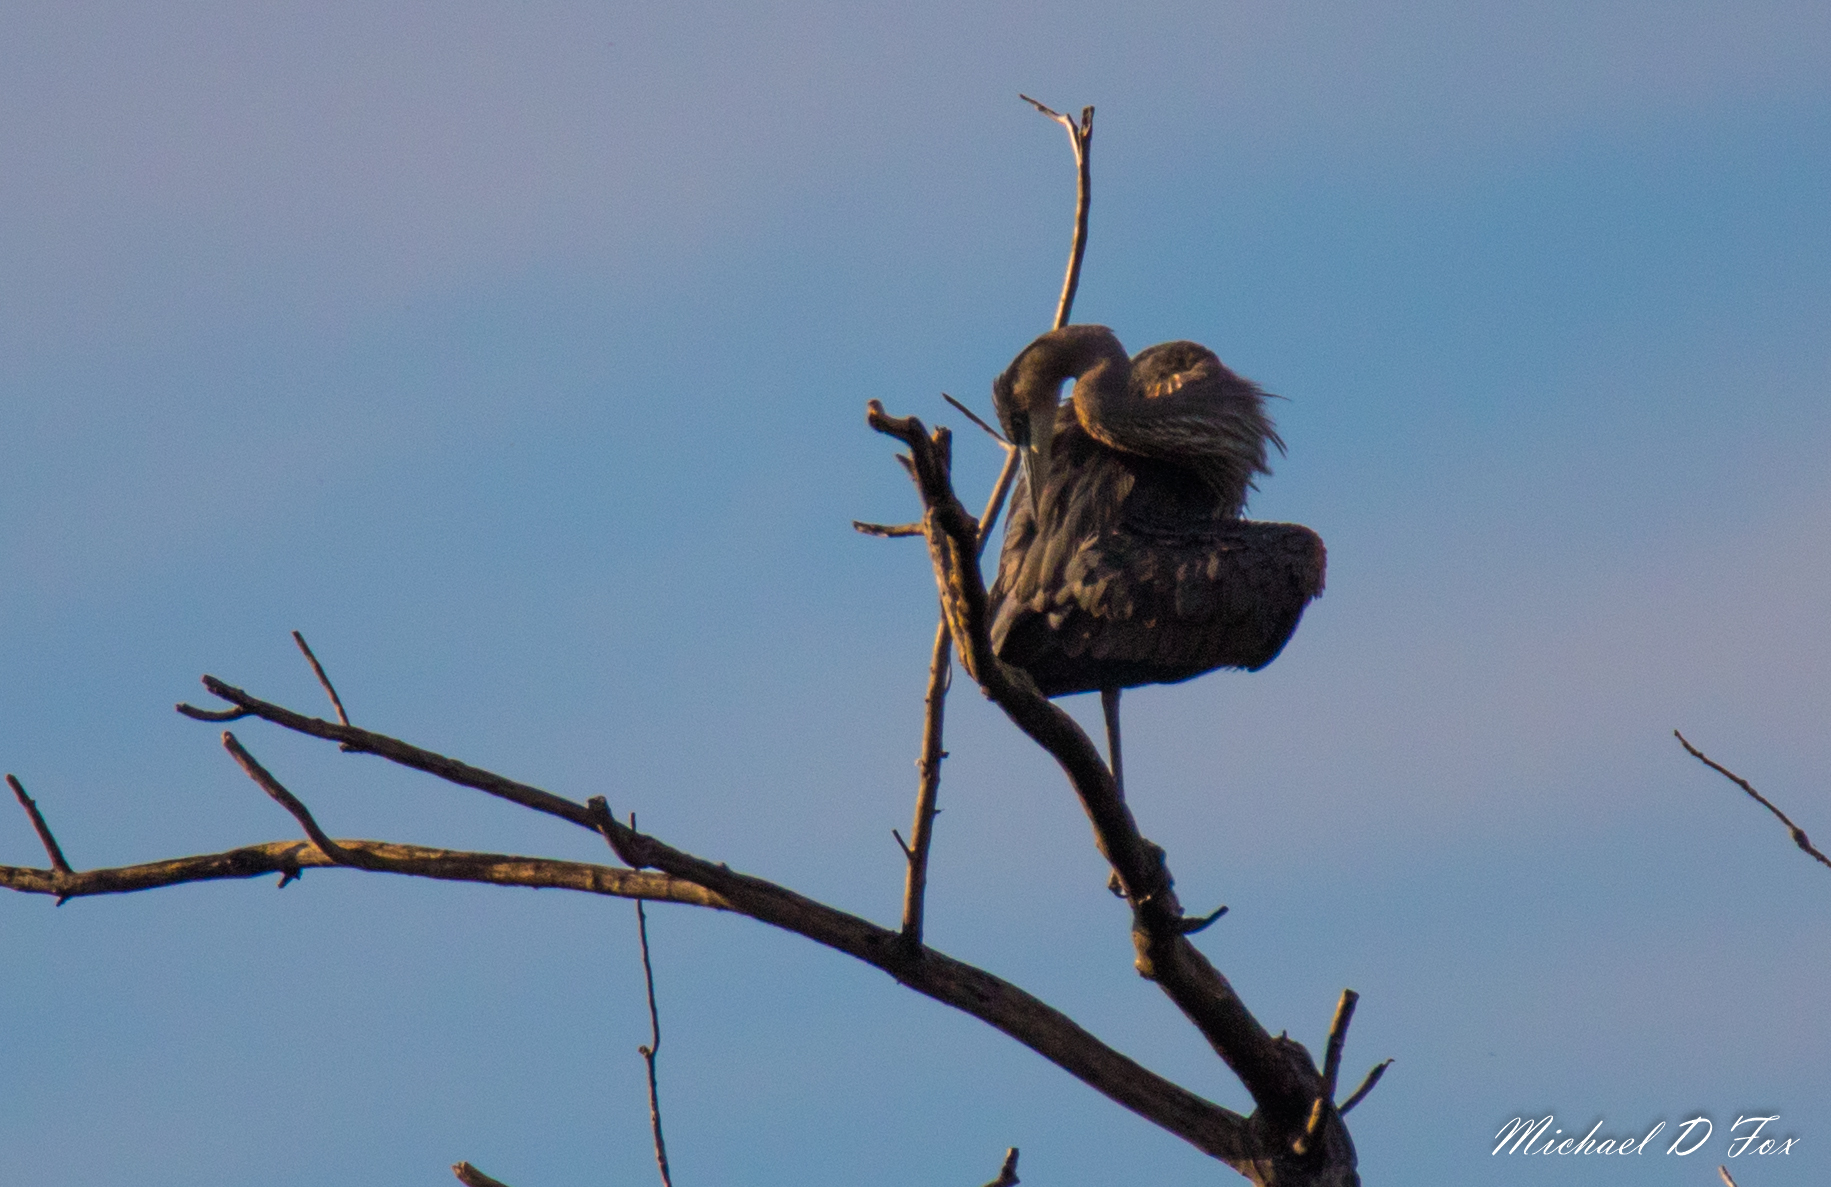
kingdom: Animalia
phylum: Chordata
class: Aves
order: Pelecaniformes
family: Ardeidae
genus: Ardea
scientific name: Ardea herodias
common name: Great blue heron
